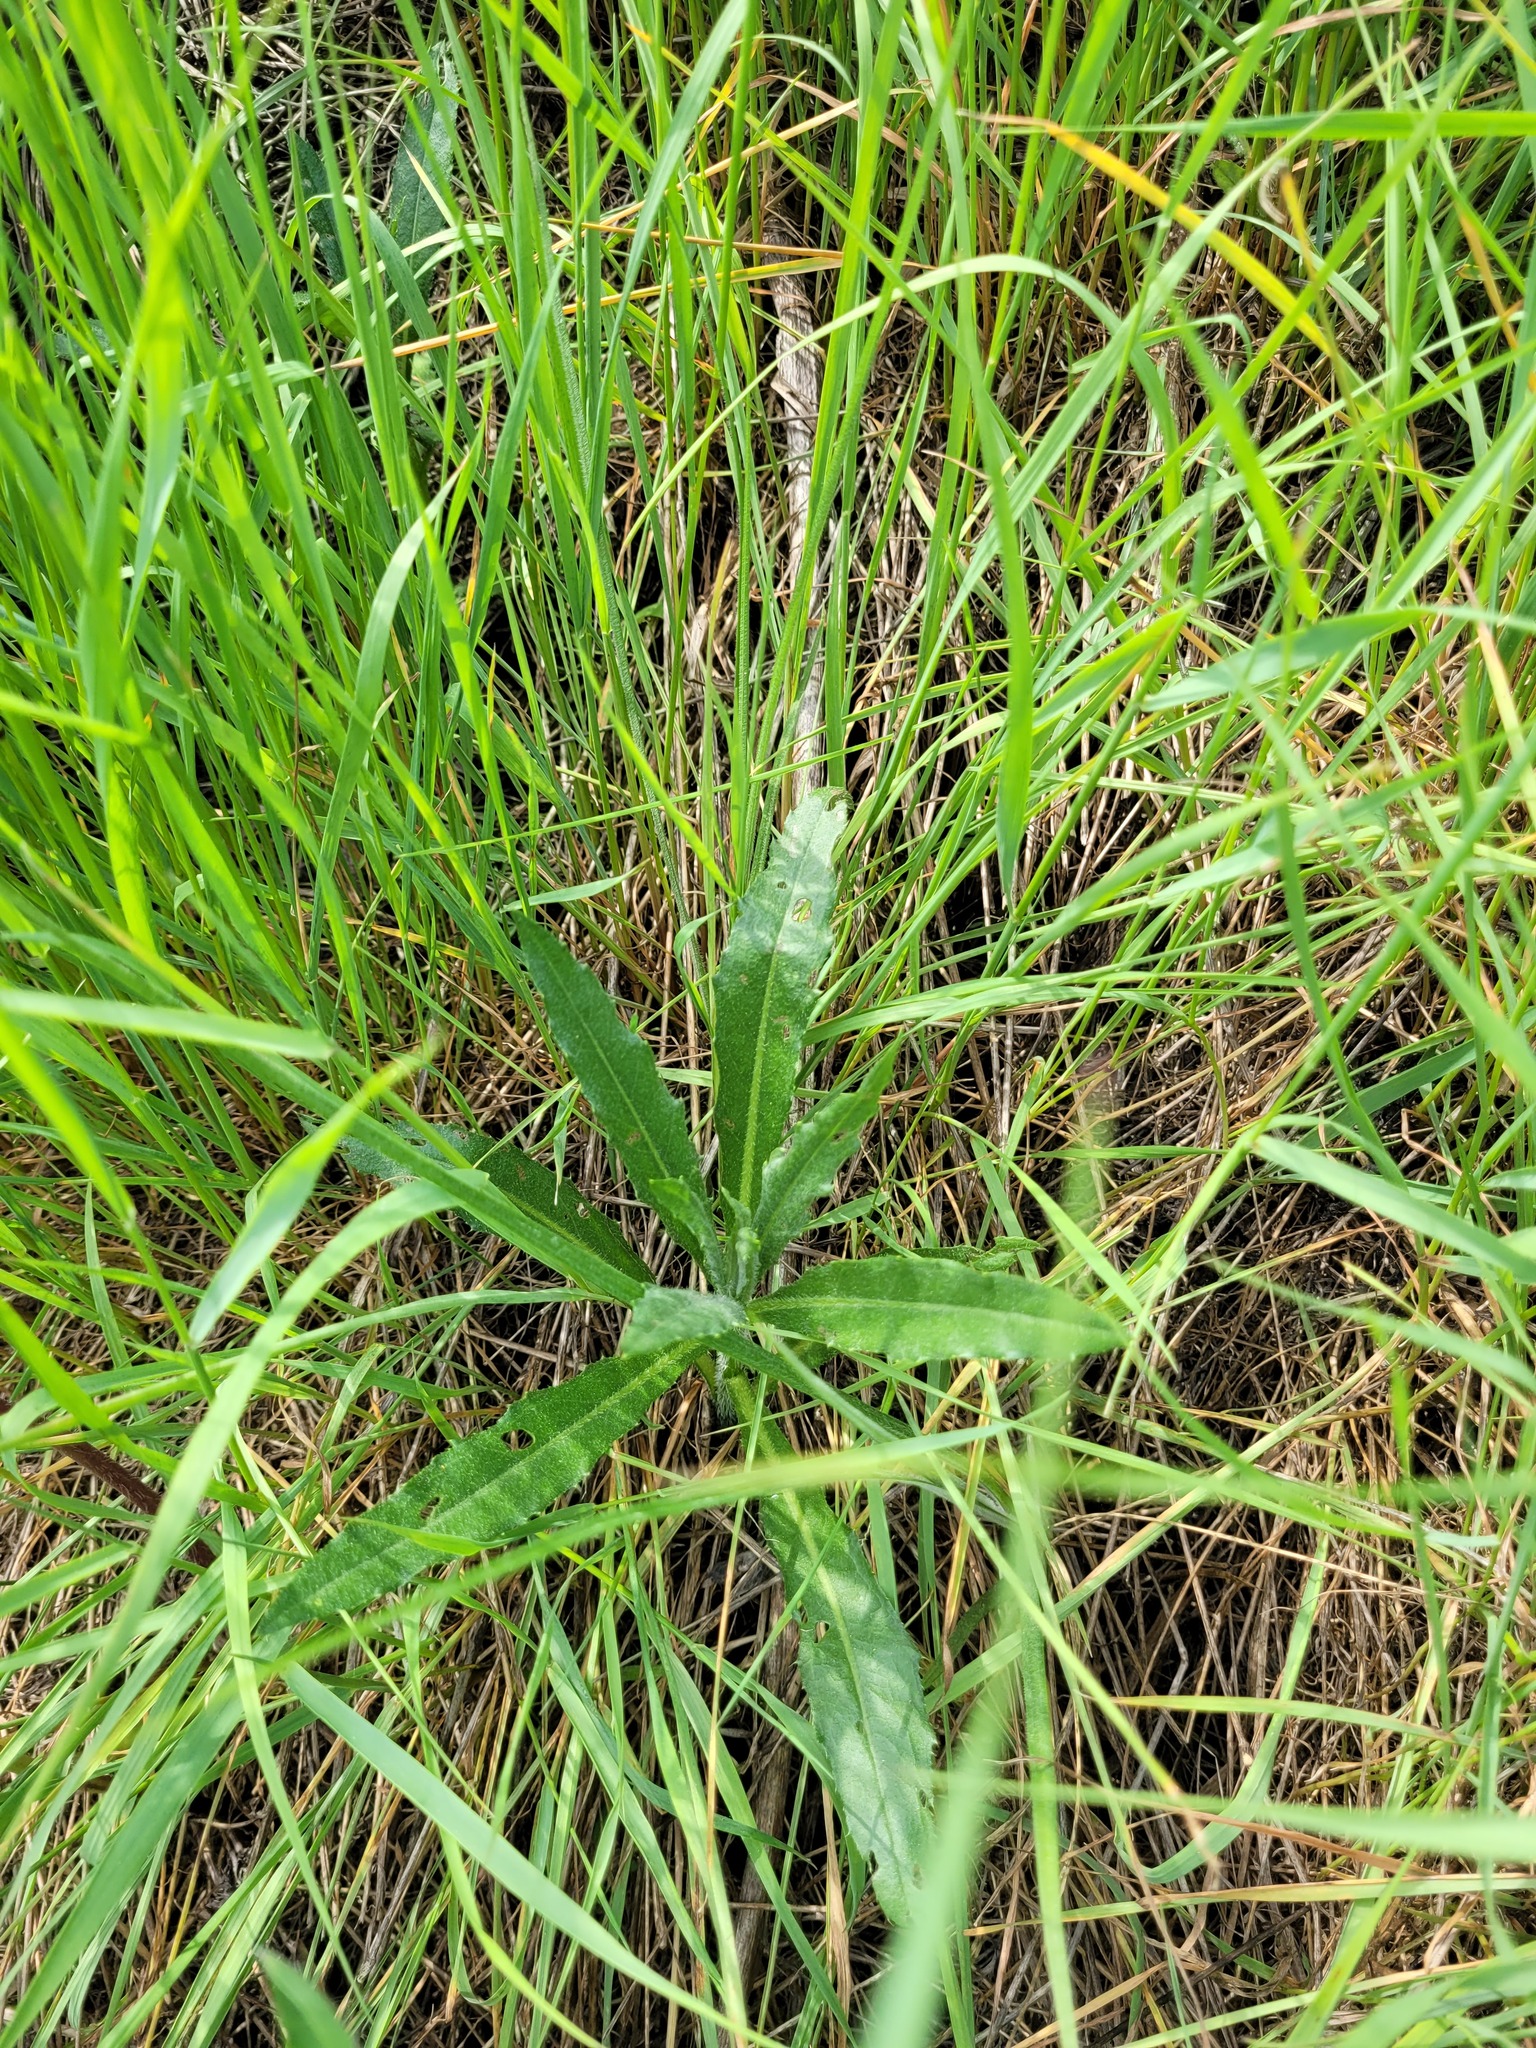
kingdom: Plantae
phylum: Tracheophyta
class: Magnoliopsida
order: Asterales
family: Asteraceae
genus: Cirsium
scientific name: Cirsium arvense
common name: Creeping thistle
